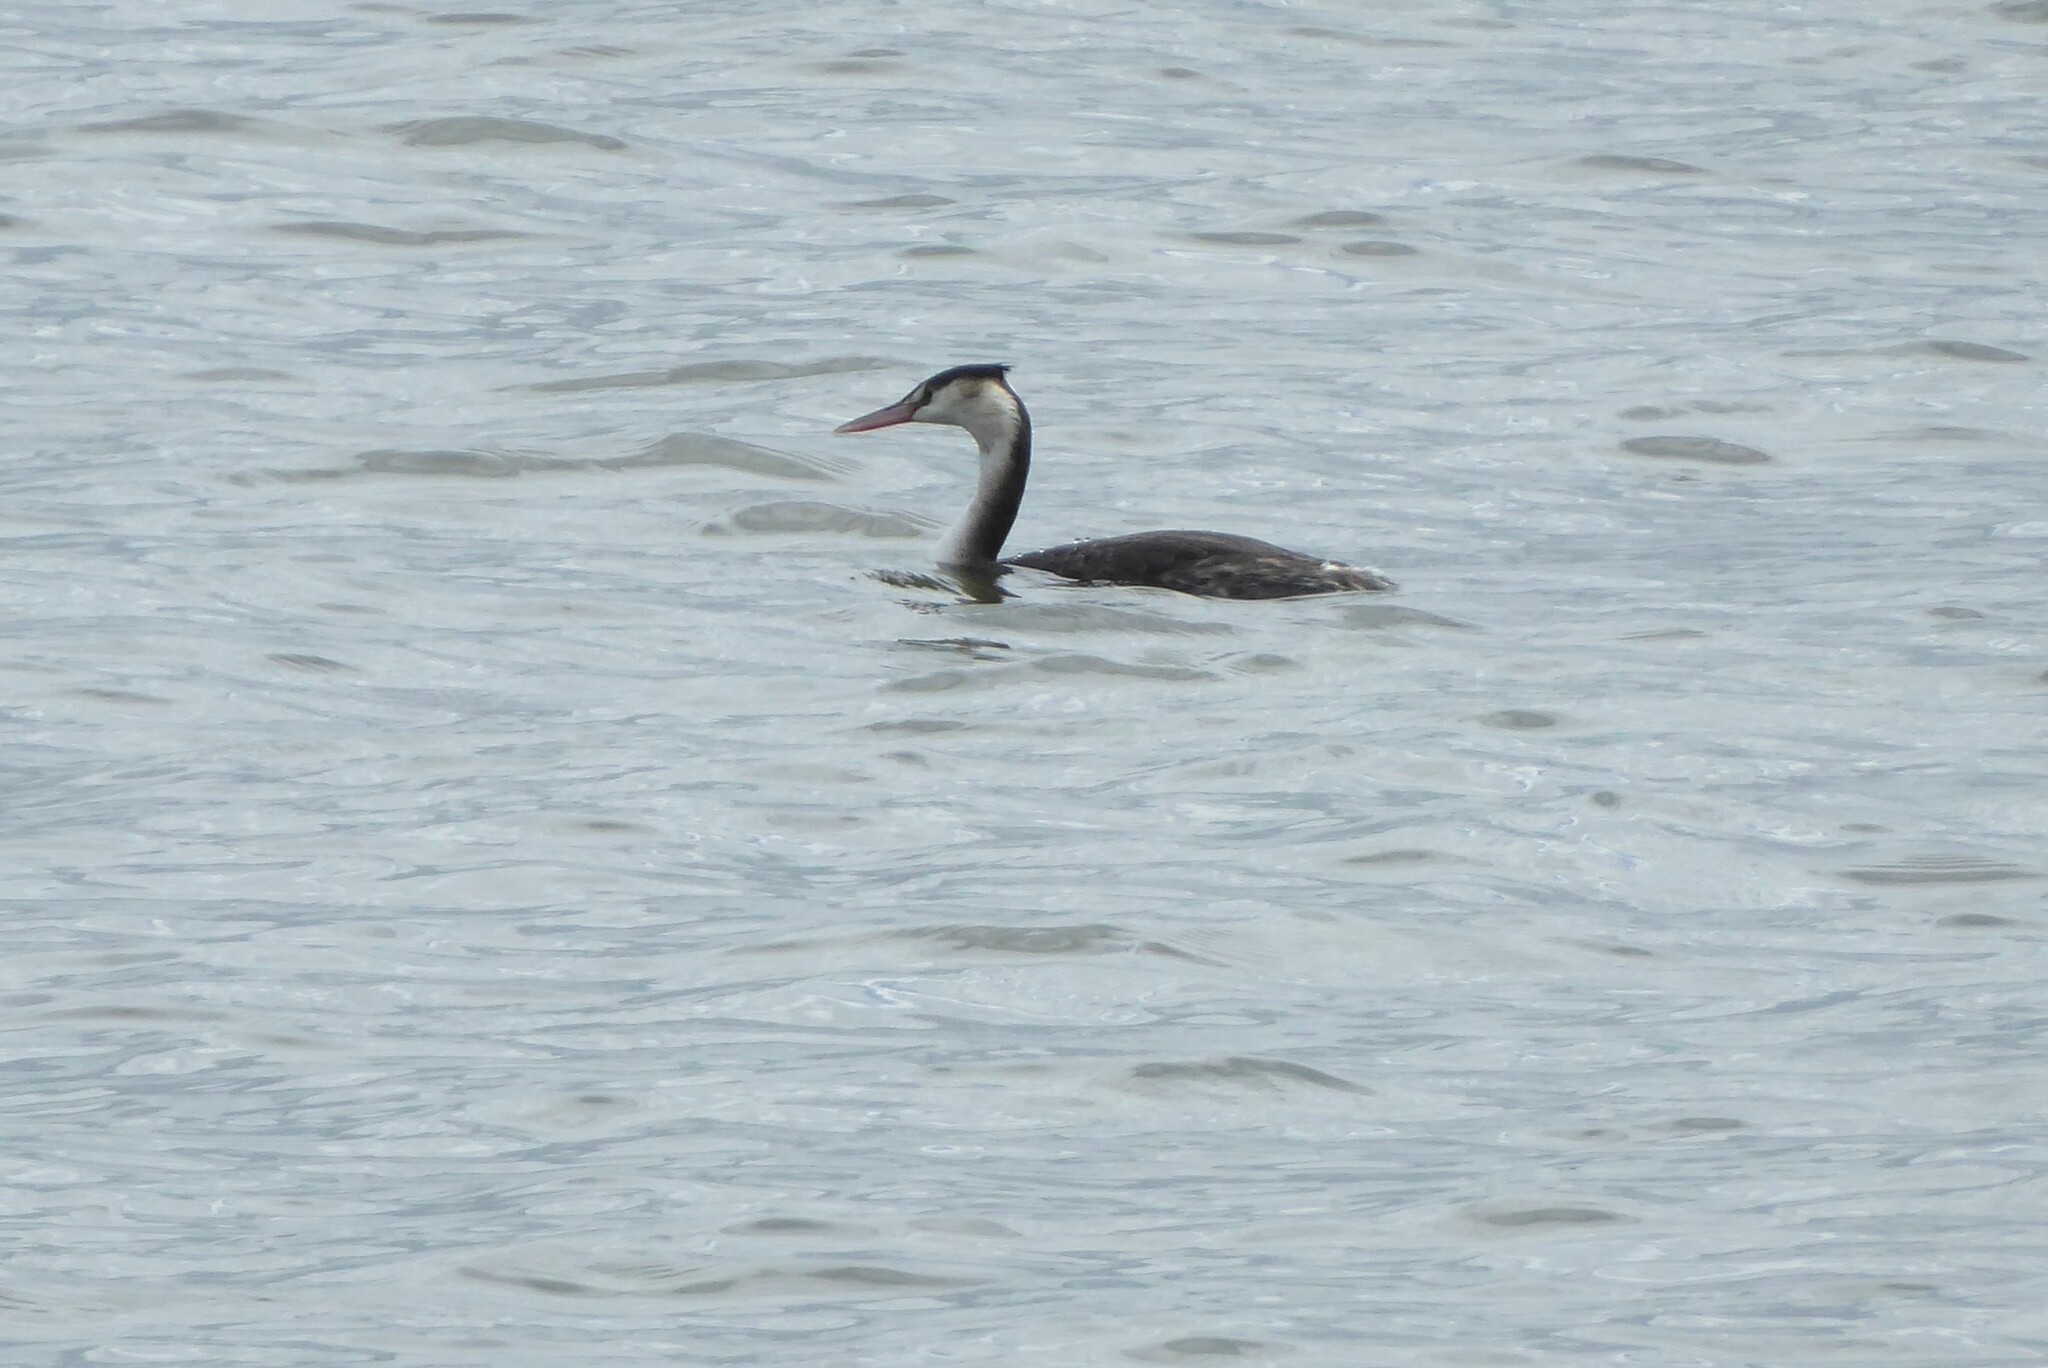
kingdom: Animalia
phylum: Chordata
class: Aves
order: Podicipediformes
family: Podicipedidae
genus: Podiceps
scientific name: Podiceps cristatus
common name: Great crested grebe
